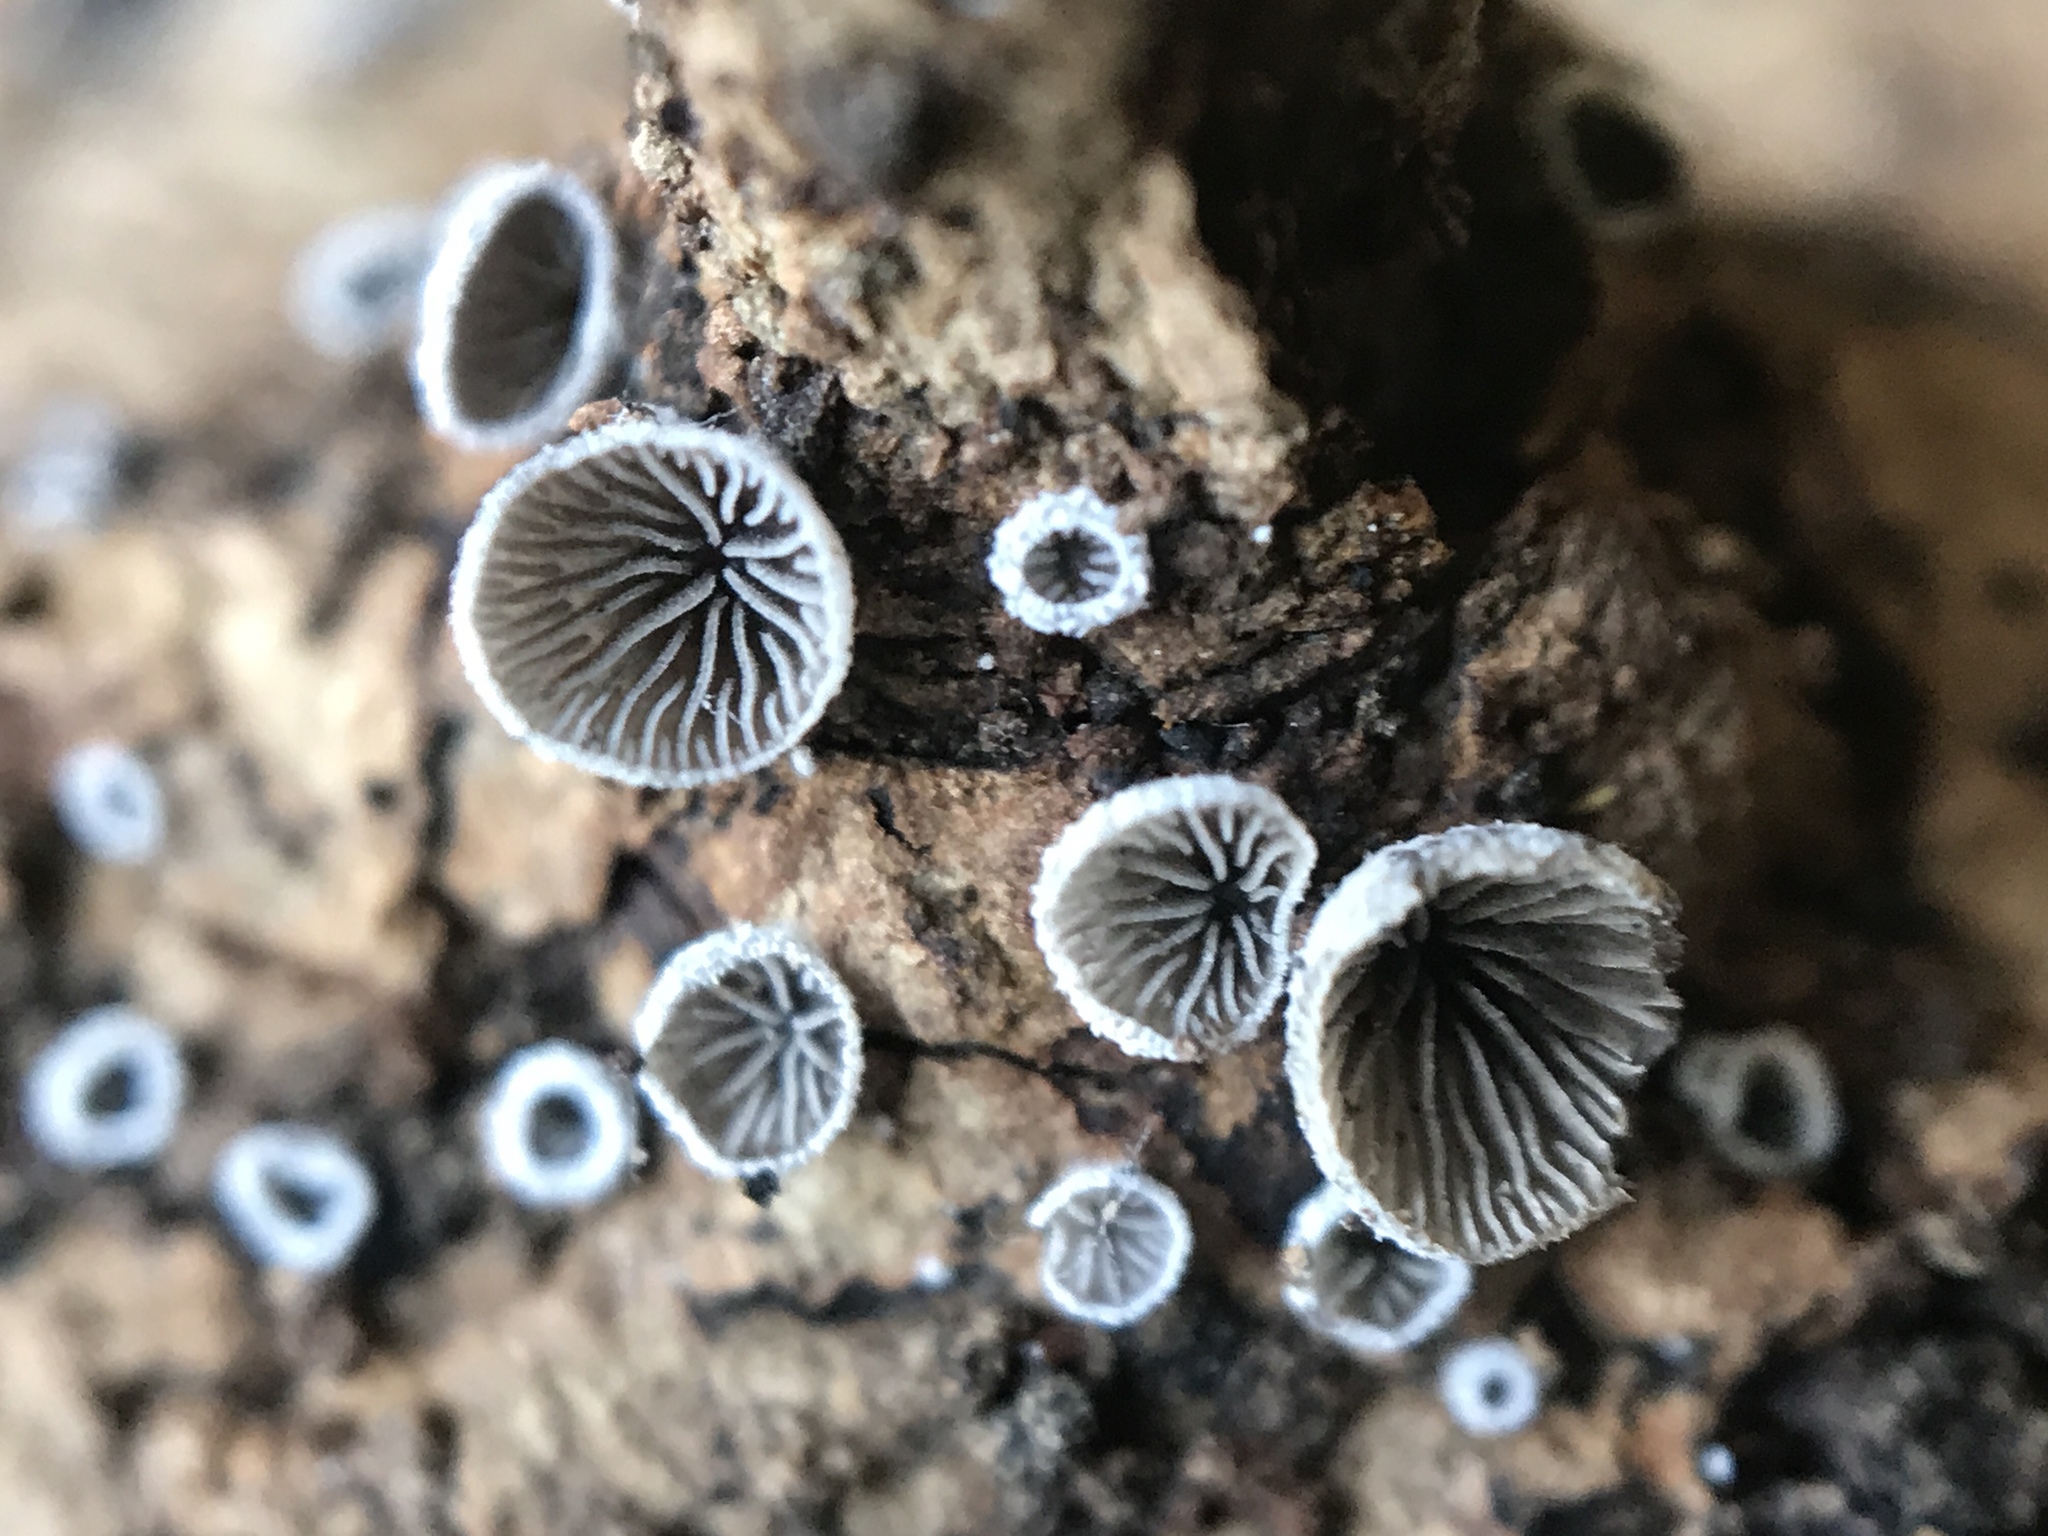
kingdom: Fungi
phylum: Basidiomycota
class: Agaricomycetes
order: Agaricales
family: Pleurotaceae
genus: Resupinatus
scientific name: Resupinatus applicatus
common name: Smoked oysterling
